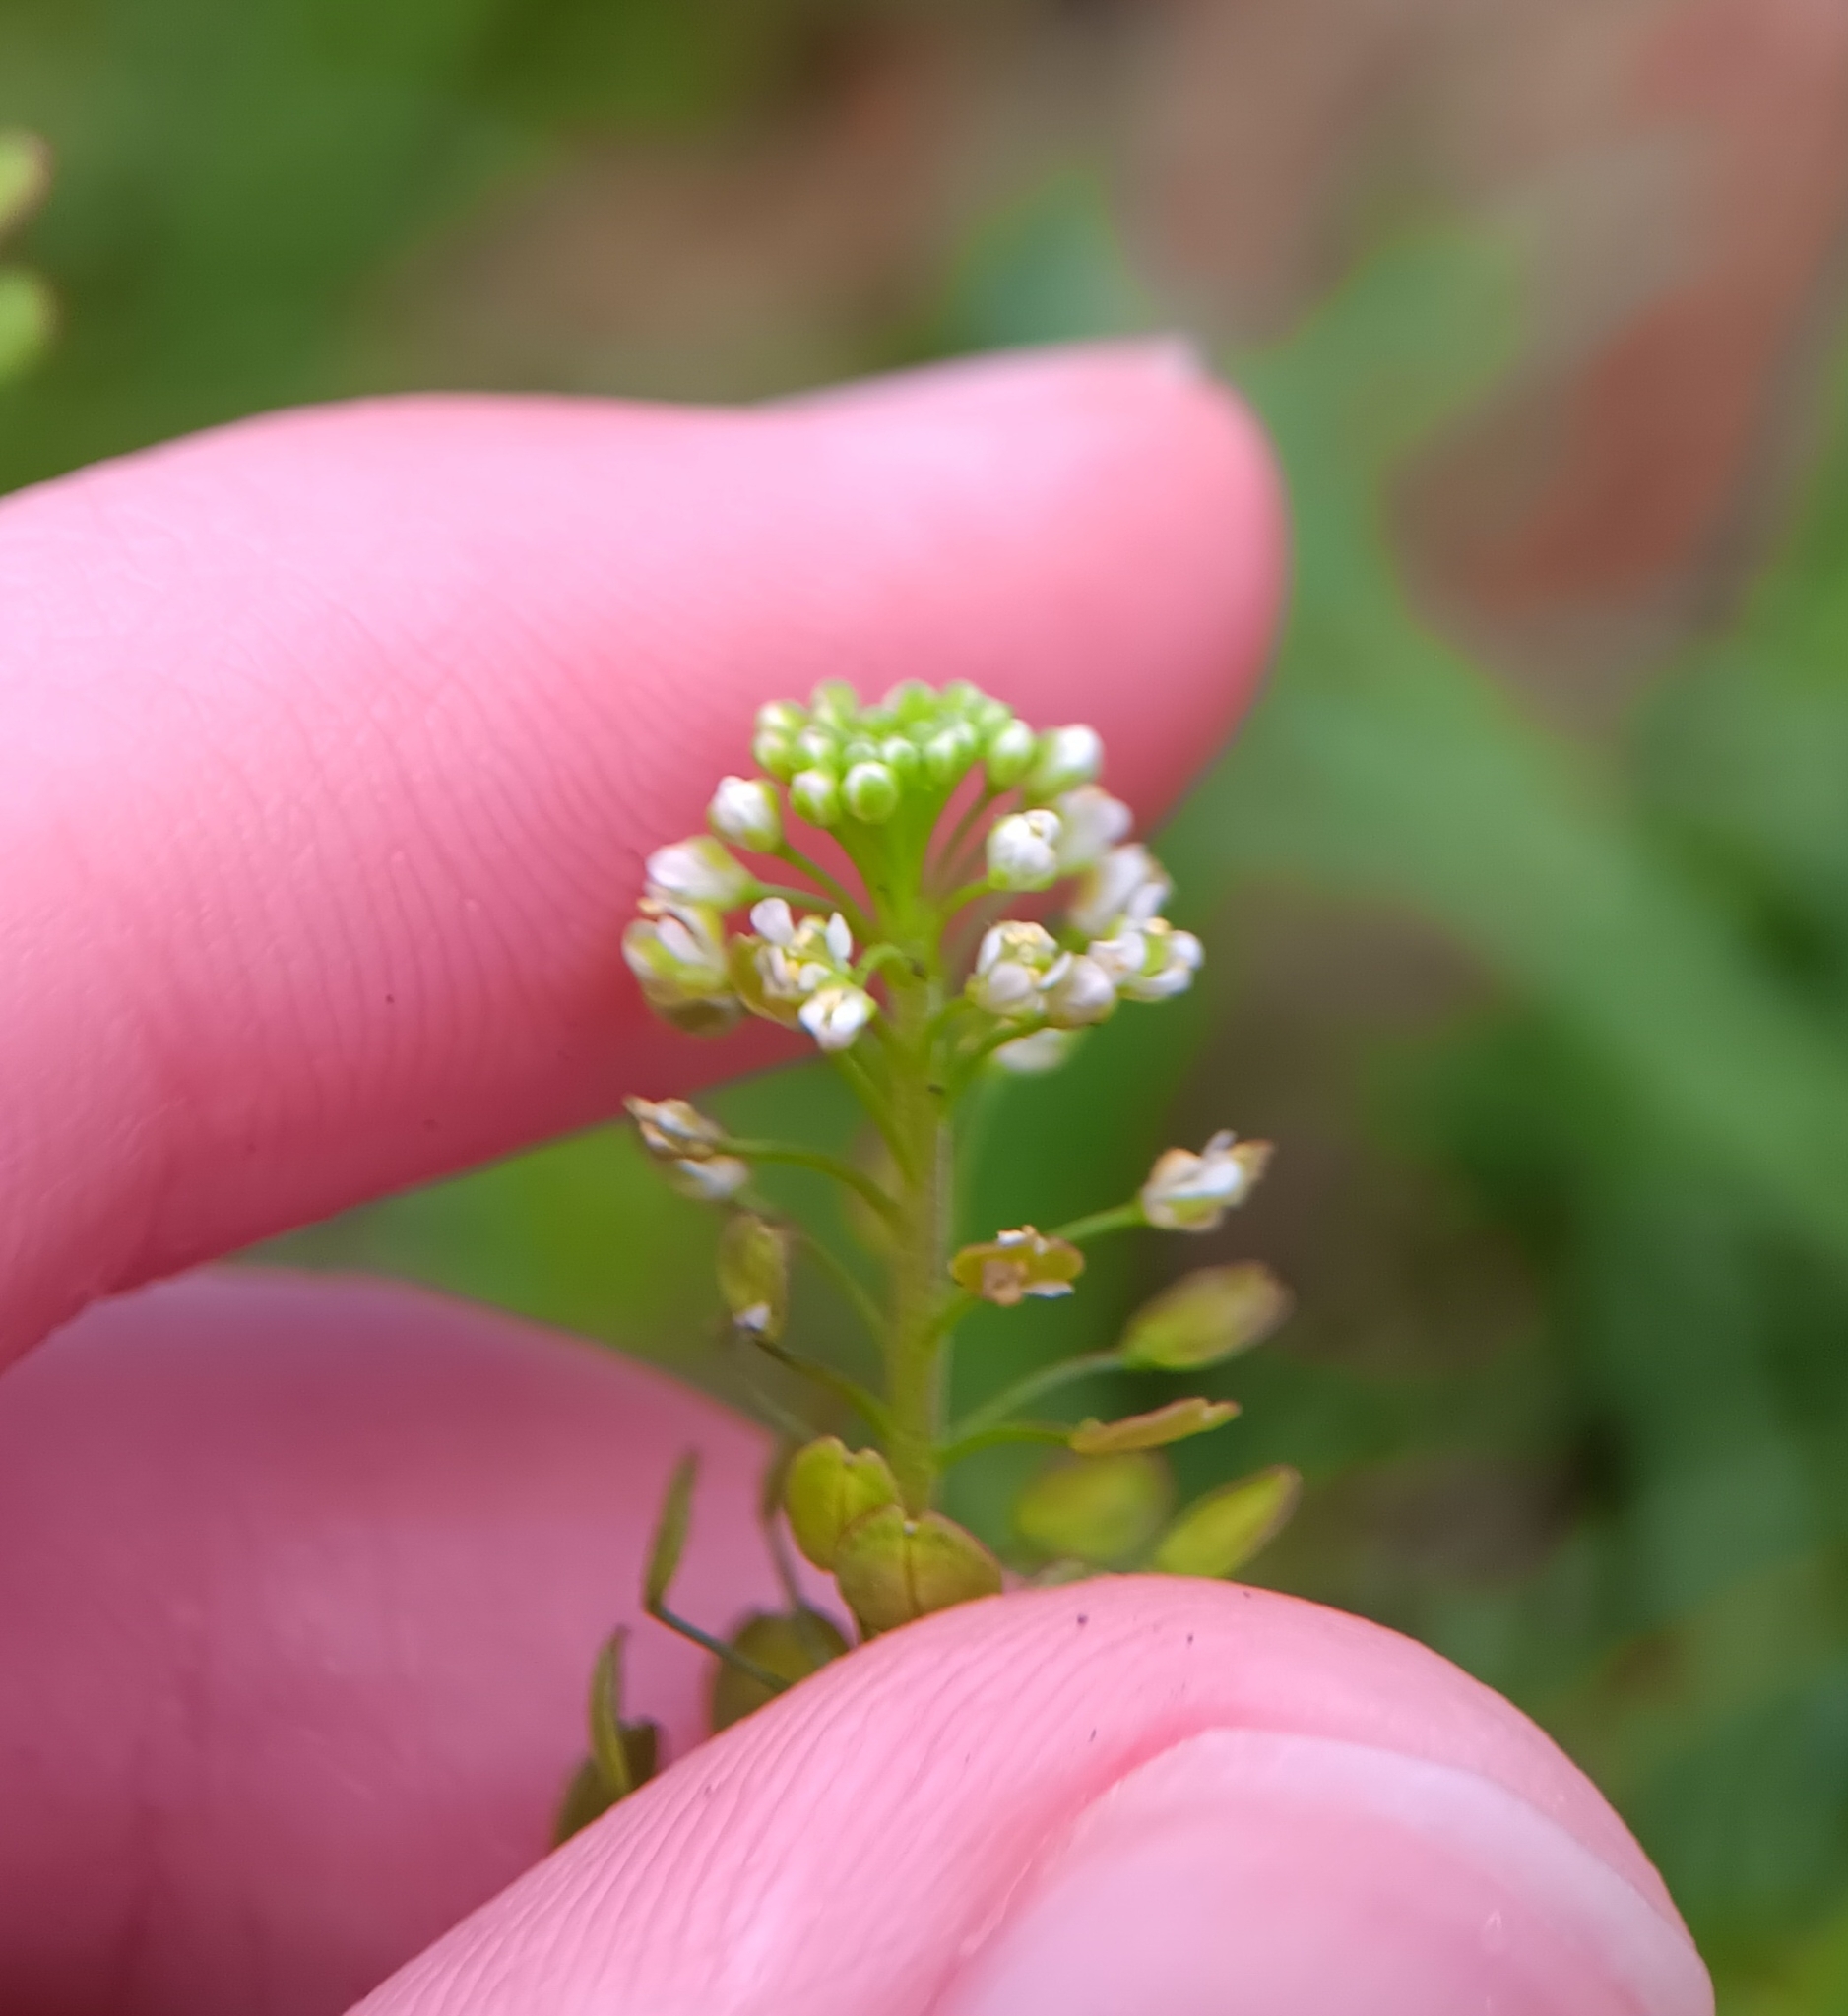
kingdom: Plantae
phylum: Tracheophyta
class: Magnoliopsida
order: Brassicales
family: Brassicaceae
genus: Lepidium
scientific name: Lepidium virginicum
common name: Least pepperwort
